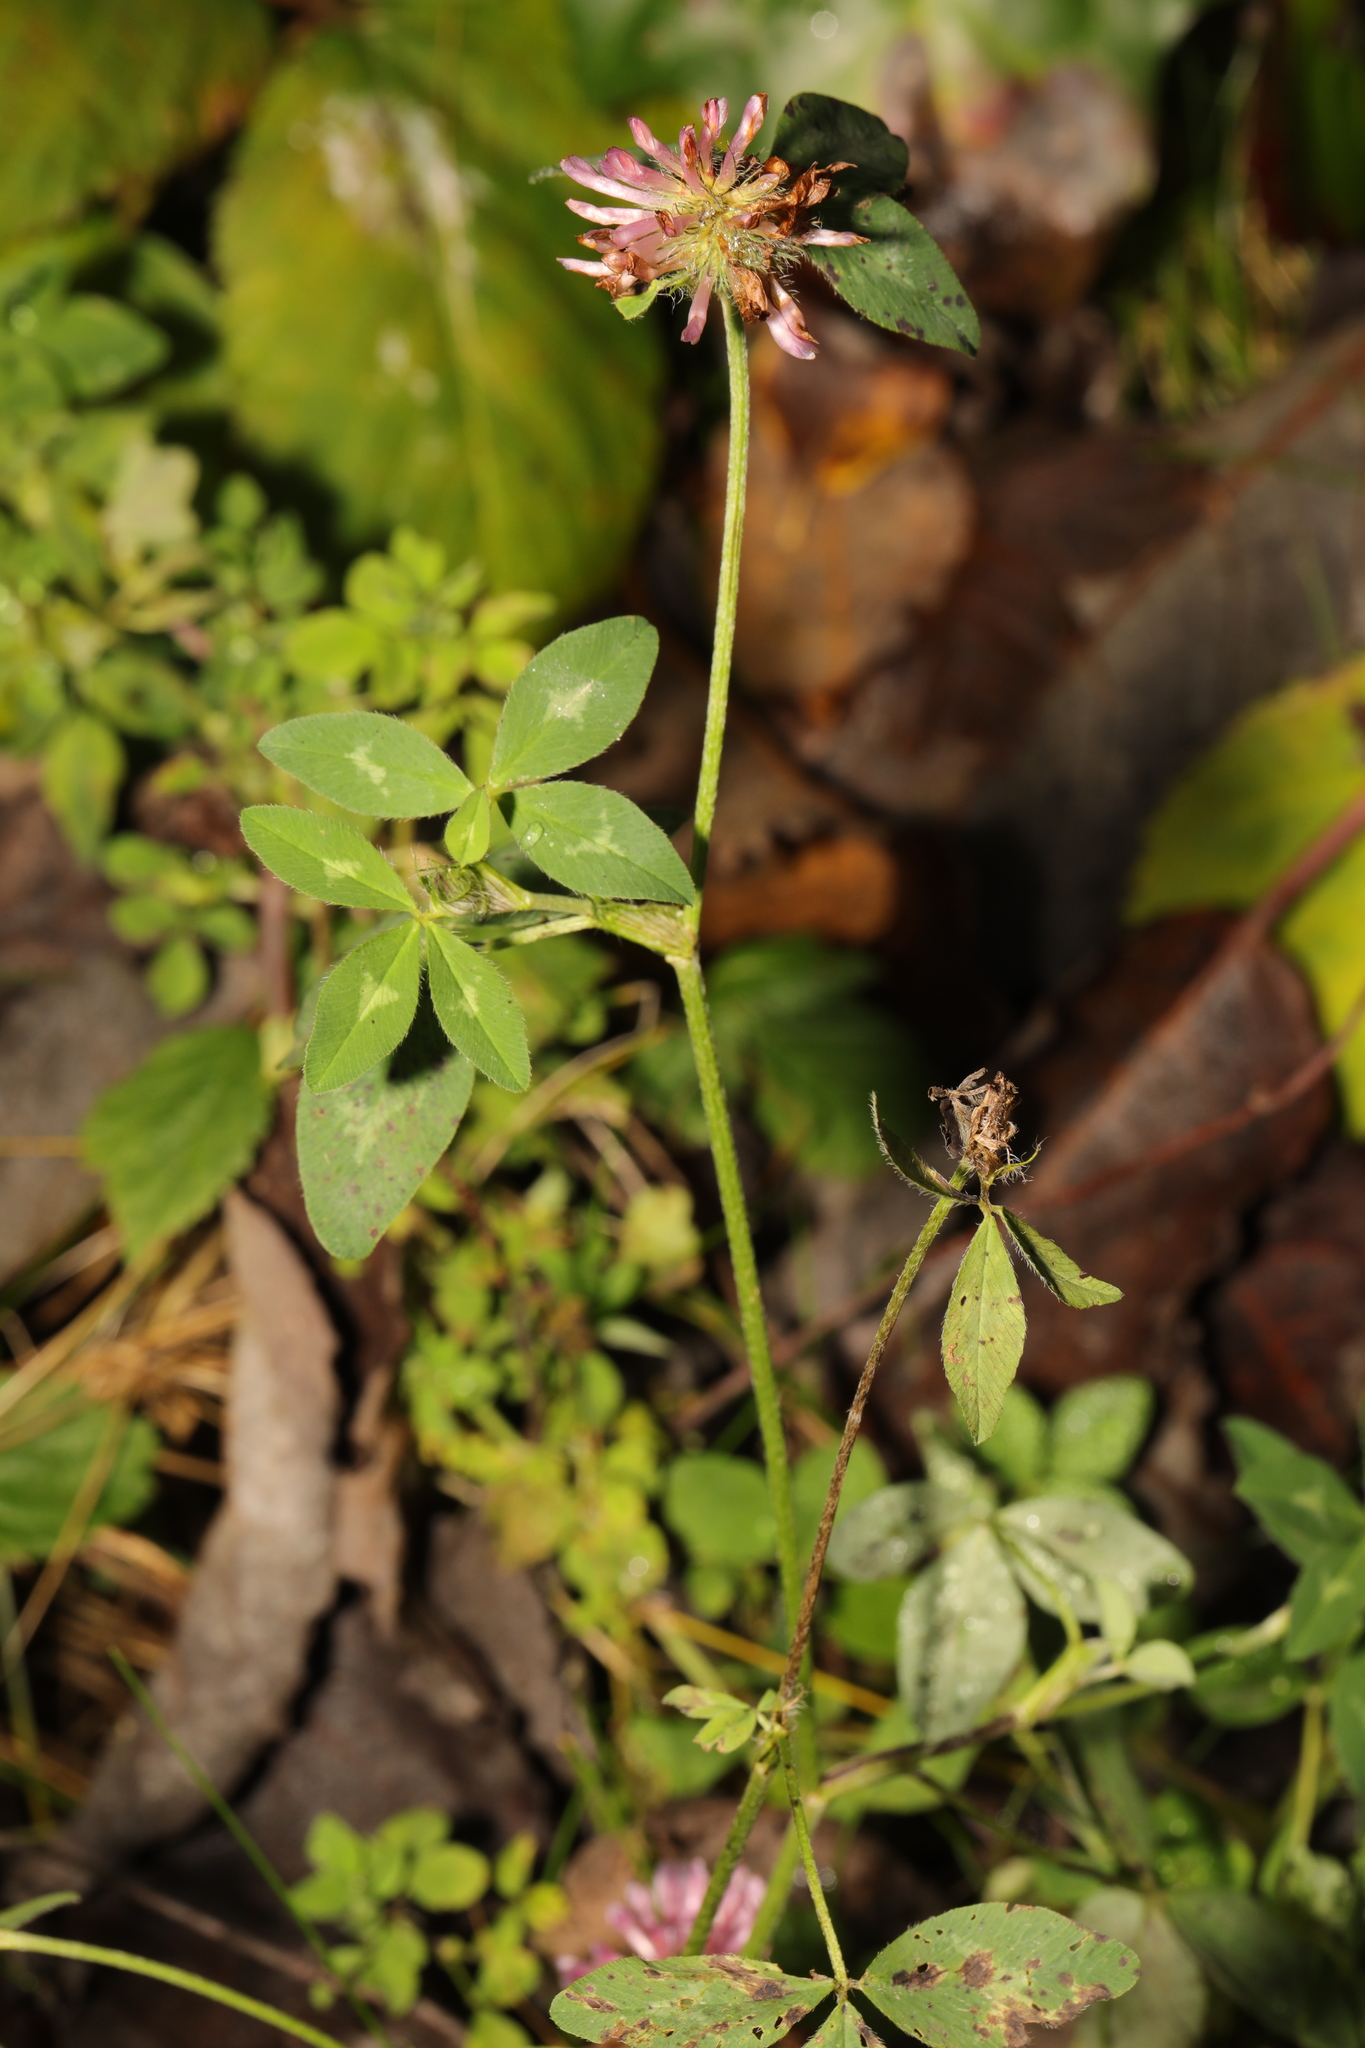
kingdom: Plantae
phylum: Tracheophyta
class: Magnoliopsida
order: Fabales
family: Fabaceae
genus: Trifolium
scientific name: Trifolium pratense
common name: Red clover
